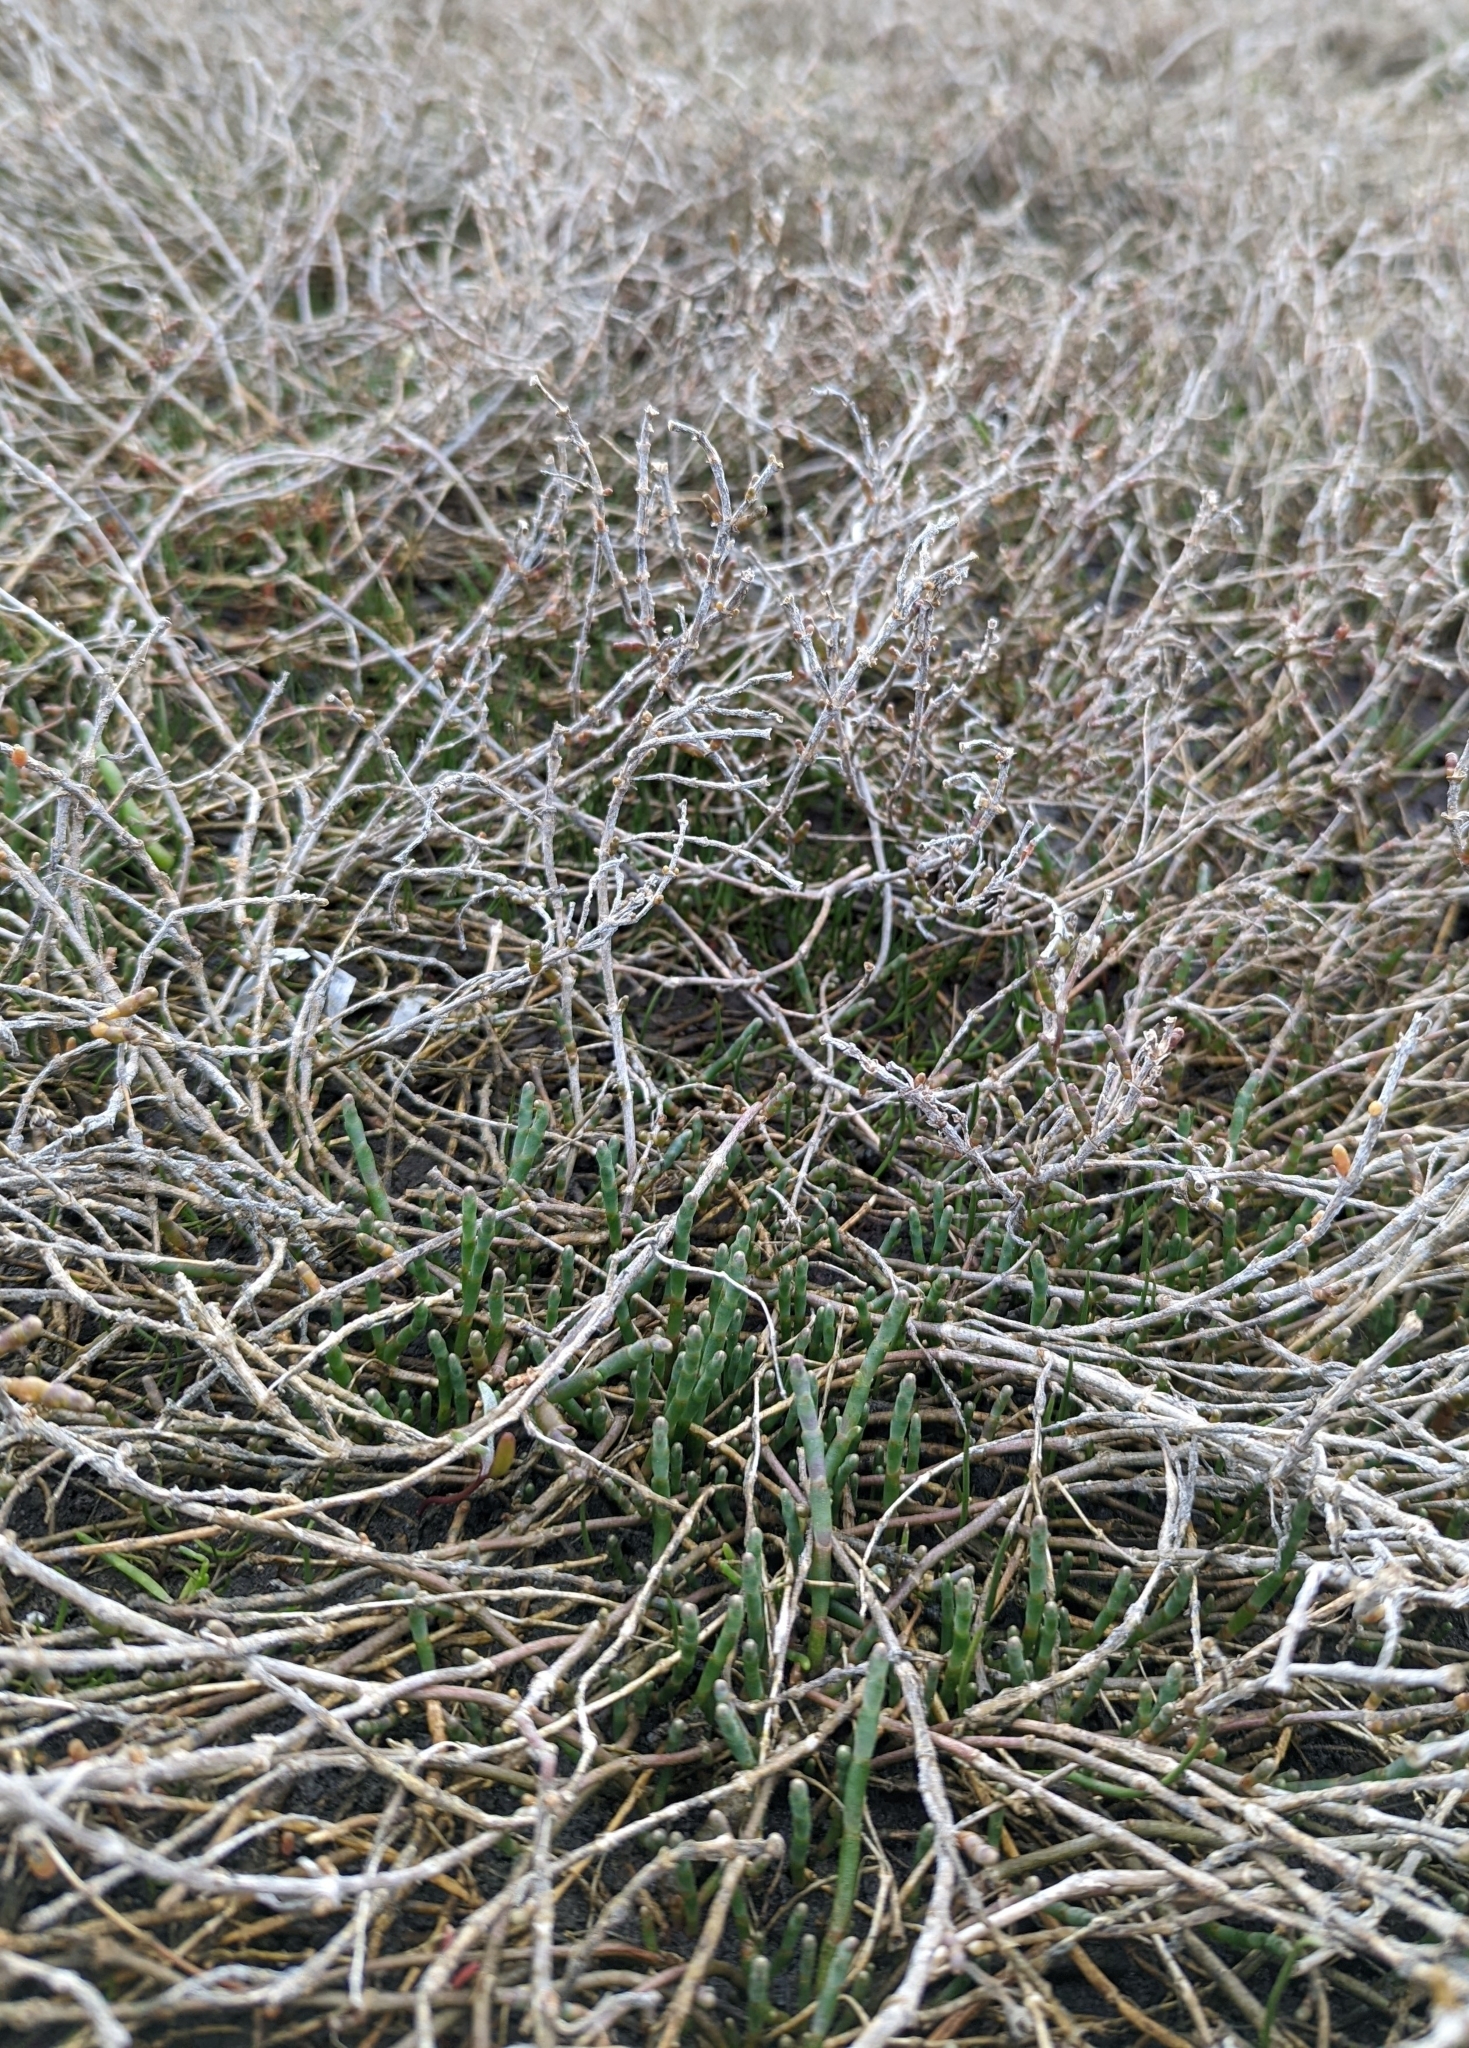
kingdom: Plantae
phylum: Tracheophyta
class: Magnoliopsida
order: Caryophyllales
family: Amaranthaceae
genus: Salicornia
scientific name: Salicornia pacifica
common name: Pacific glasswort
